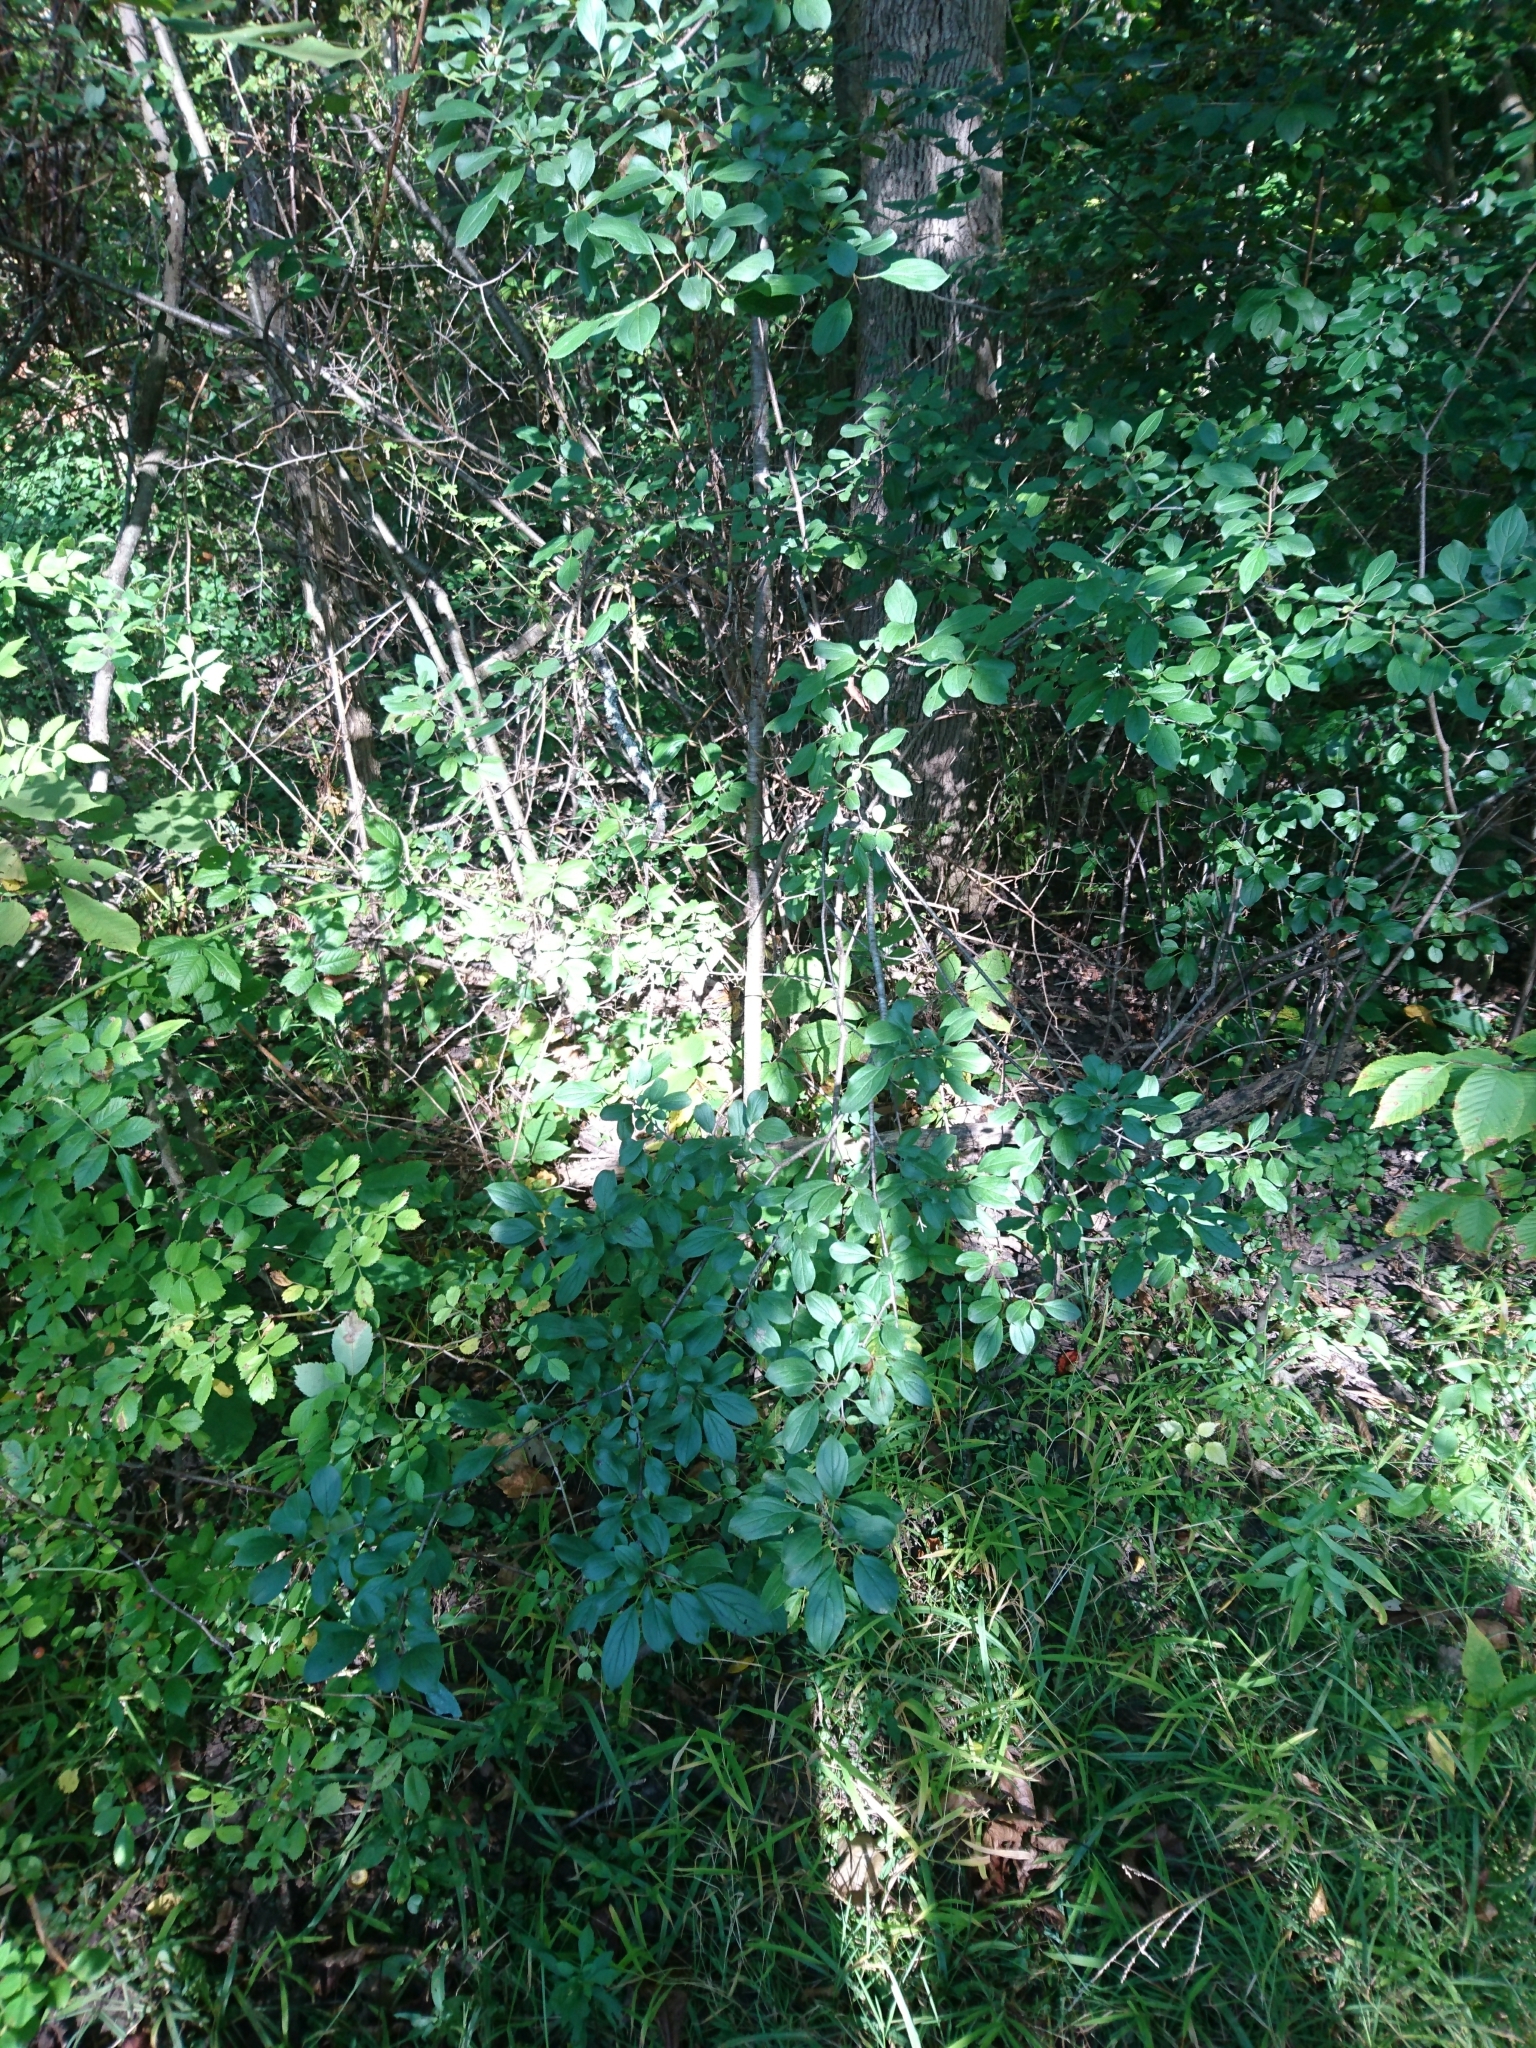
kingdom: Plantae
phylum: Tracheophyta
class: Magnoliopsida
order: Rosales
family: Rhamnaceae
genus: Rhamnus
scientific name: Rhamnus cathartica
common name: Common buckthorn
